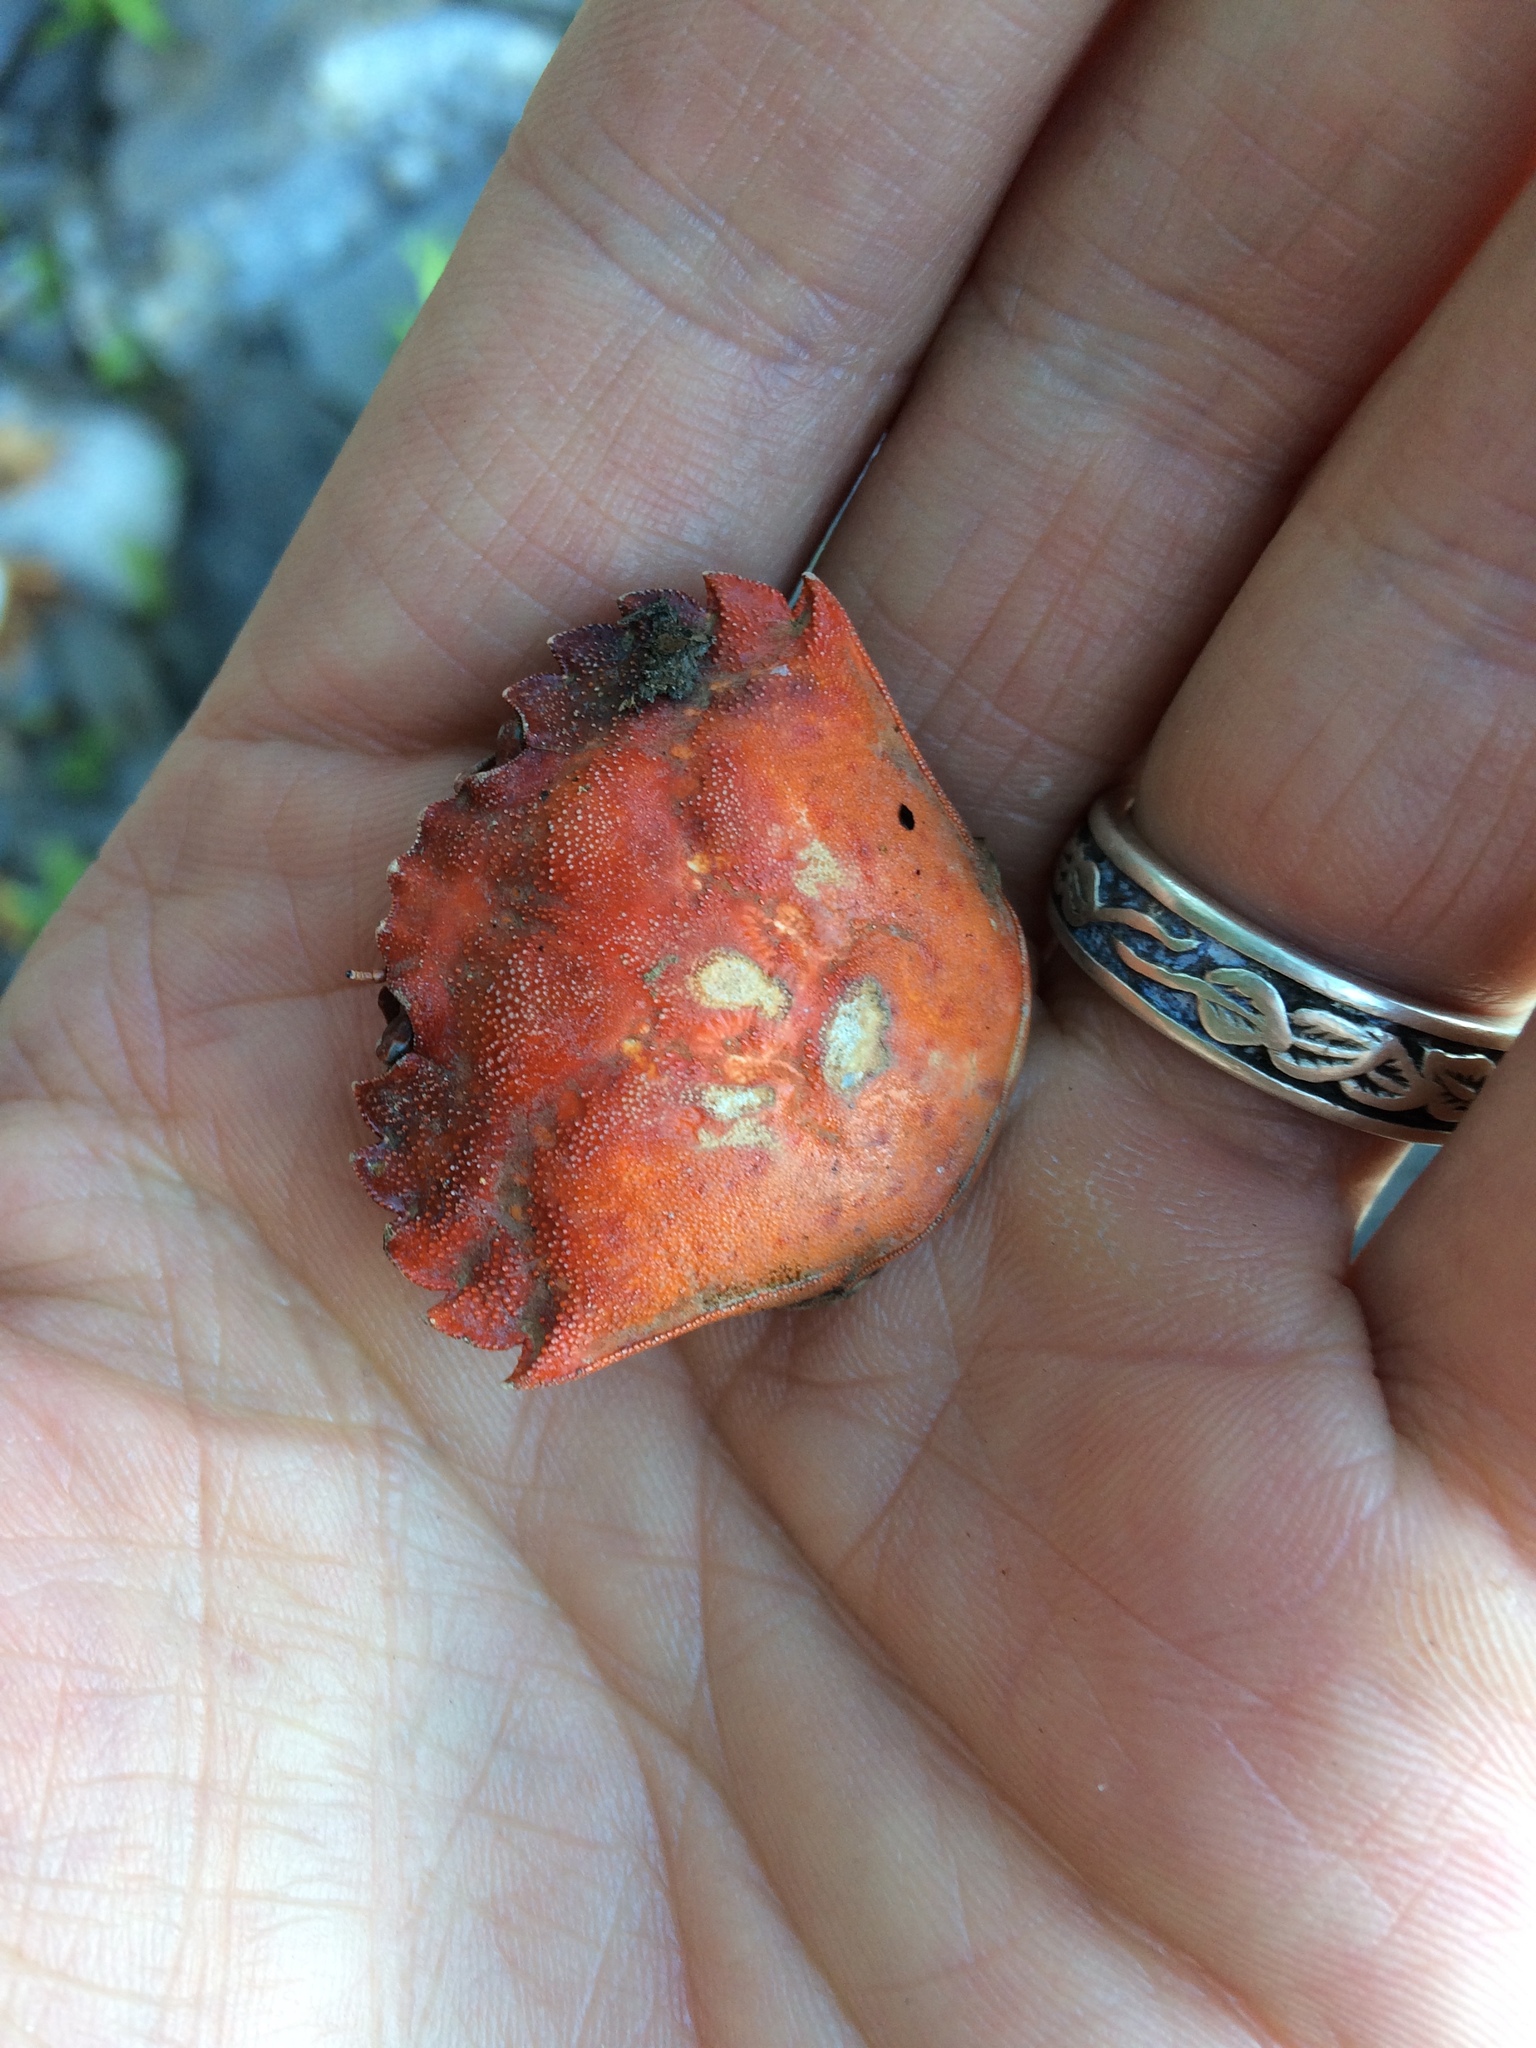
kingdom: Animalia
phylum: Arthropoda
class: Malacostraca
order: Decapoda
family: Carcinidae
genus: Carcinus
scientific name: Carcinus maenas
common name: European green crab
